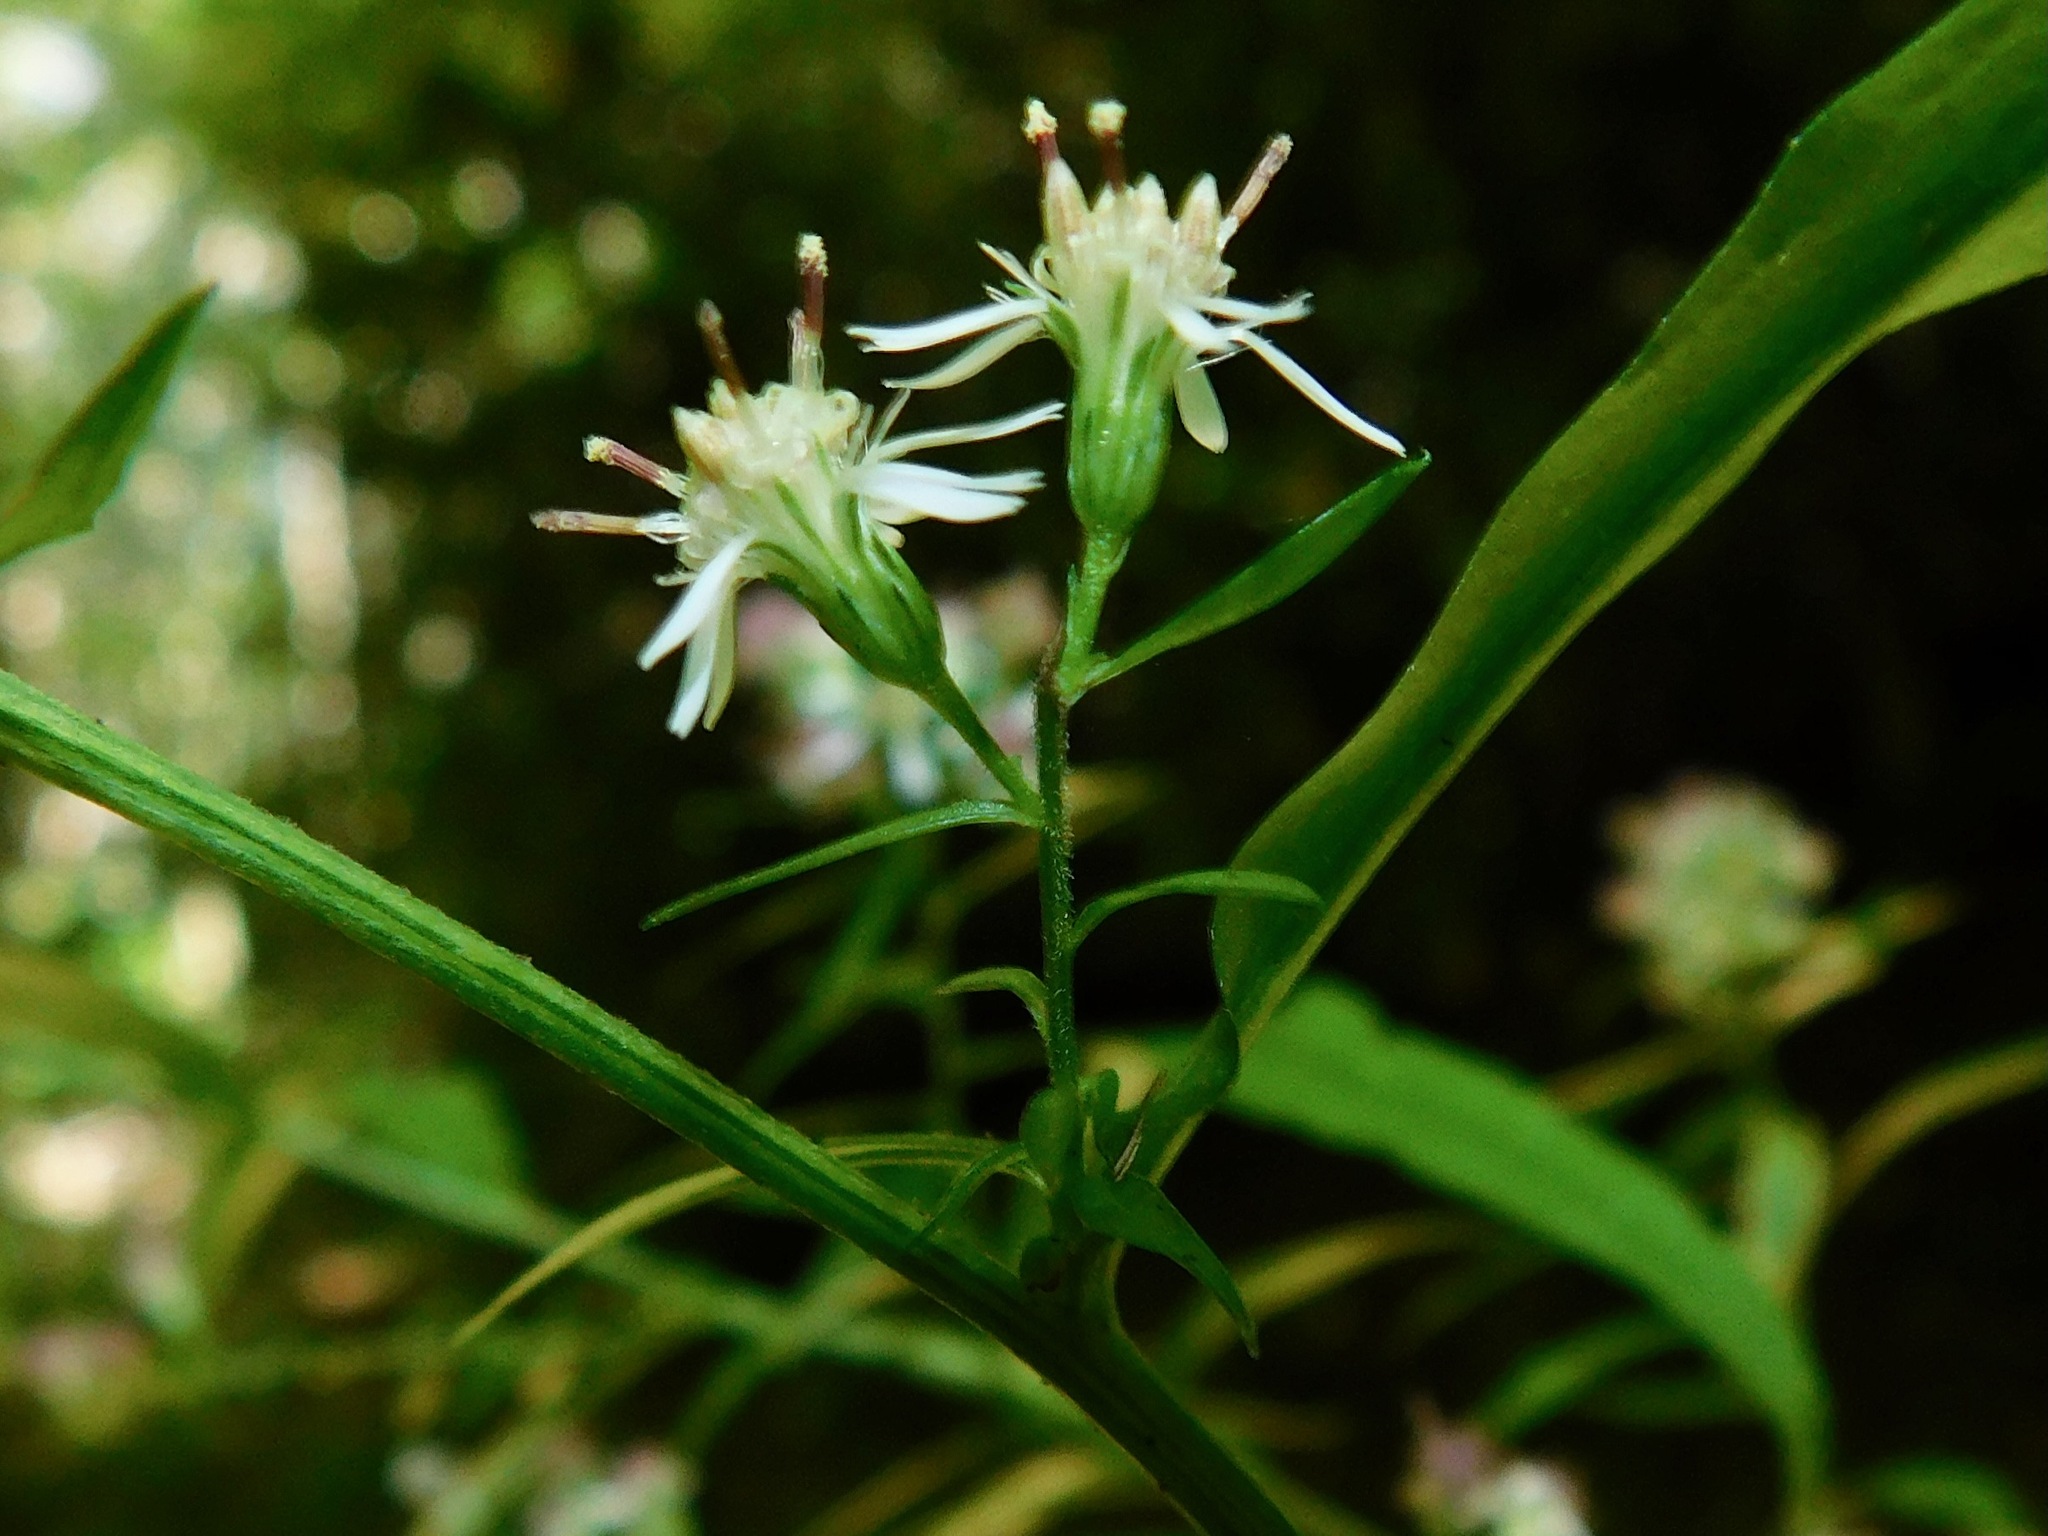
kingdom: Plantae
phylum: Tracheophyta
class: Magnoliopsida
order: Asterales
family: Asteraceae
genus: Symphyotrichum
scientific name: Symphyotrichum lateriflorum
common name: Calico aster
